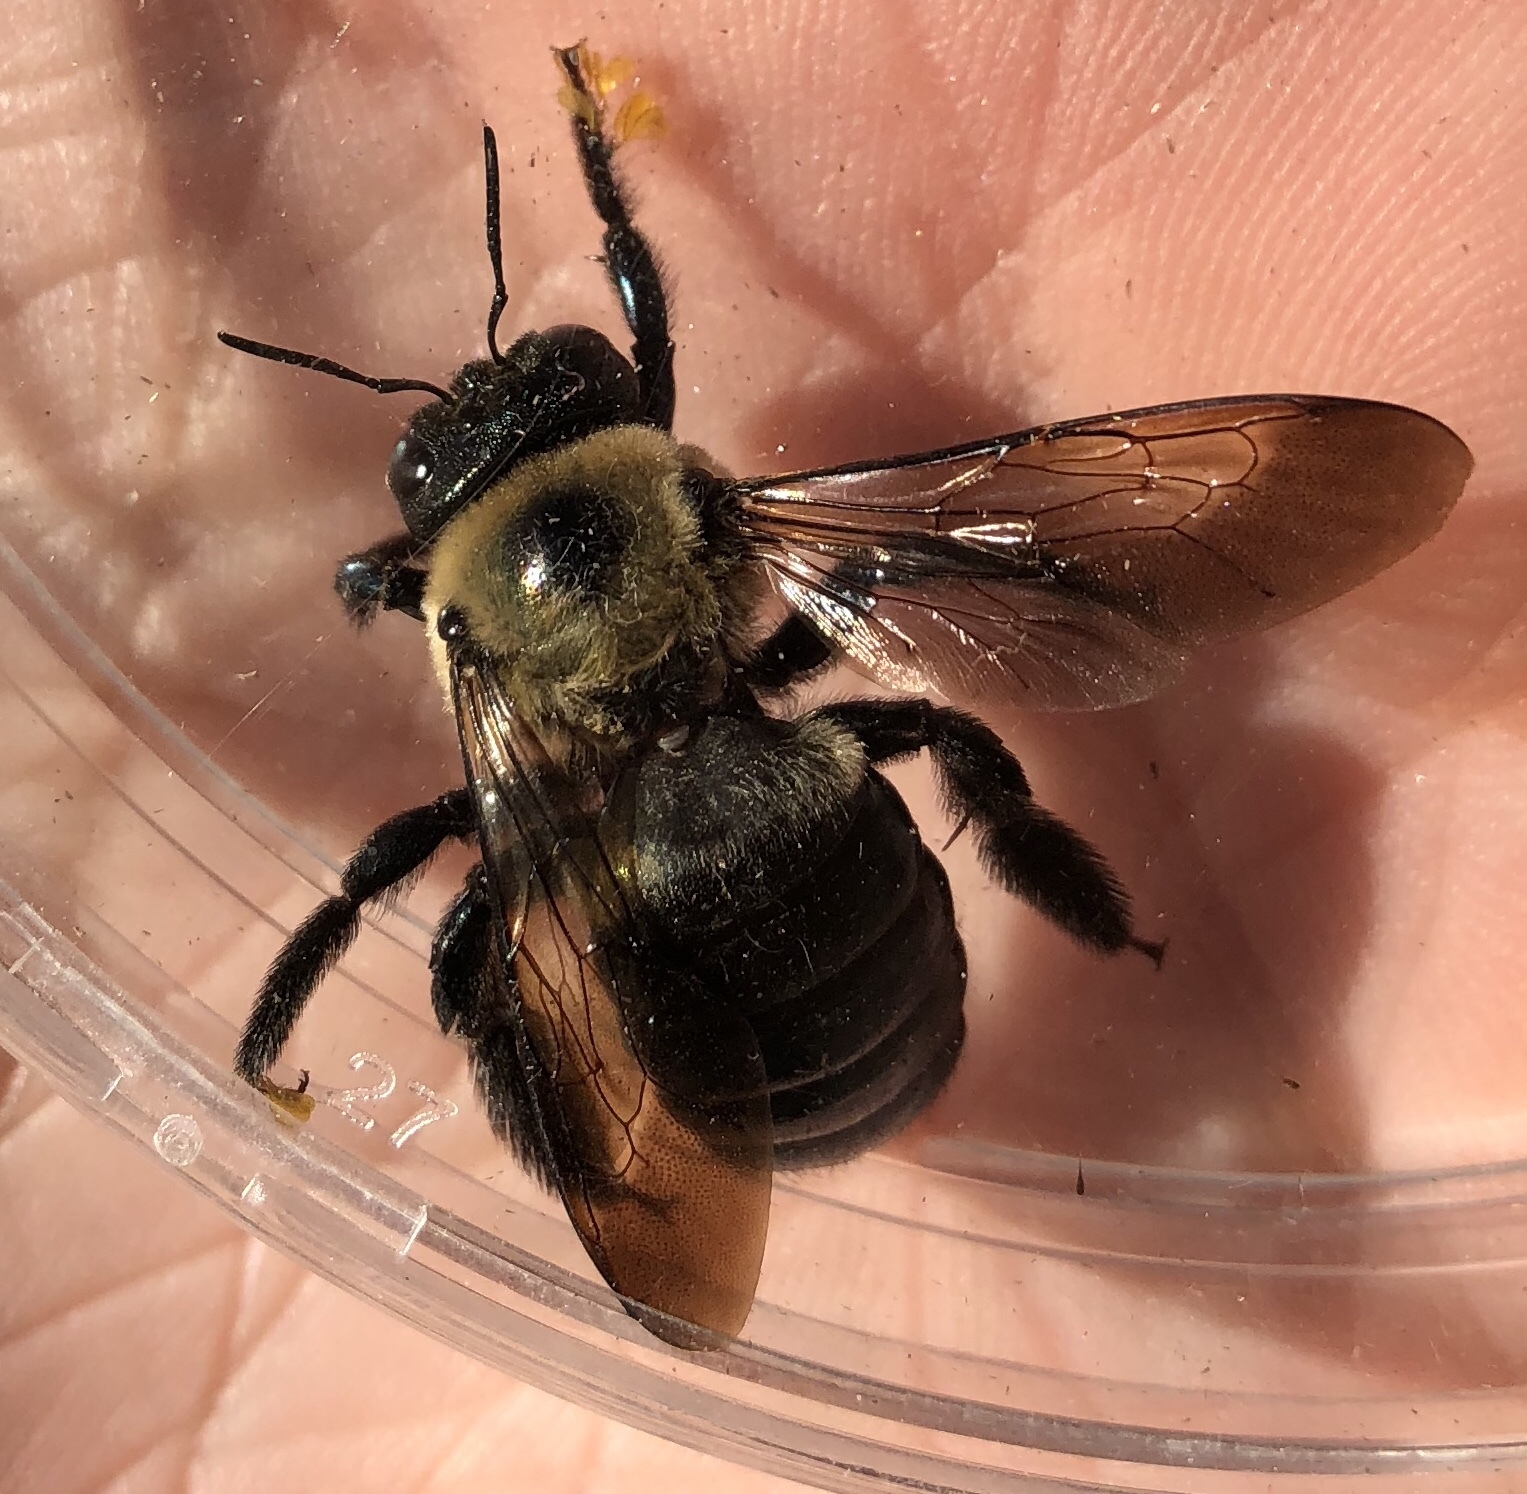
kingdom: Animalia
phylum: Arthropoda
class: Insecta
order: Hymenoptera
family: Apidae
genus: Xylocopa
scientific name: Xylocopa virginica
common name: Carpenter bee
